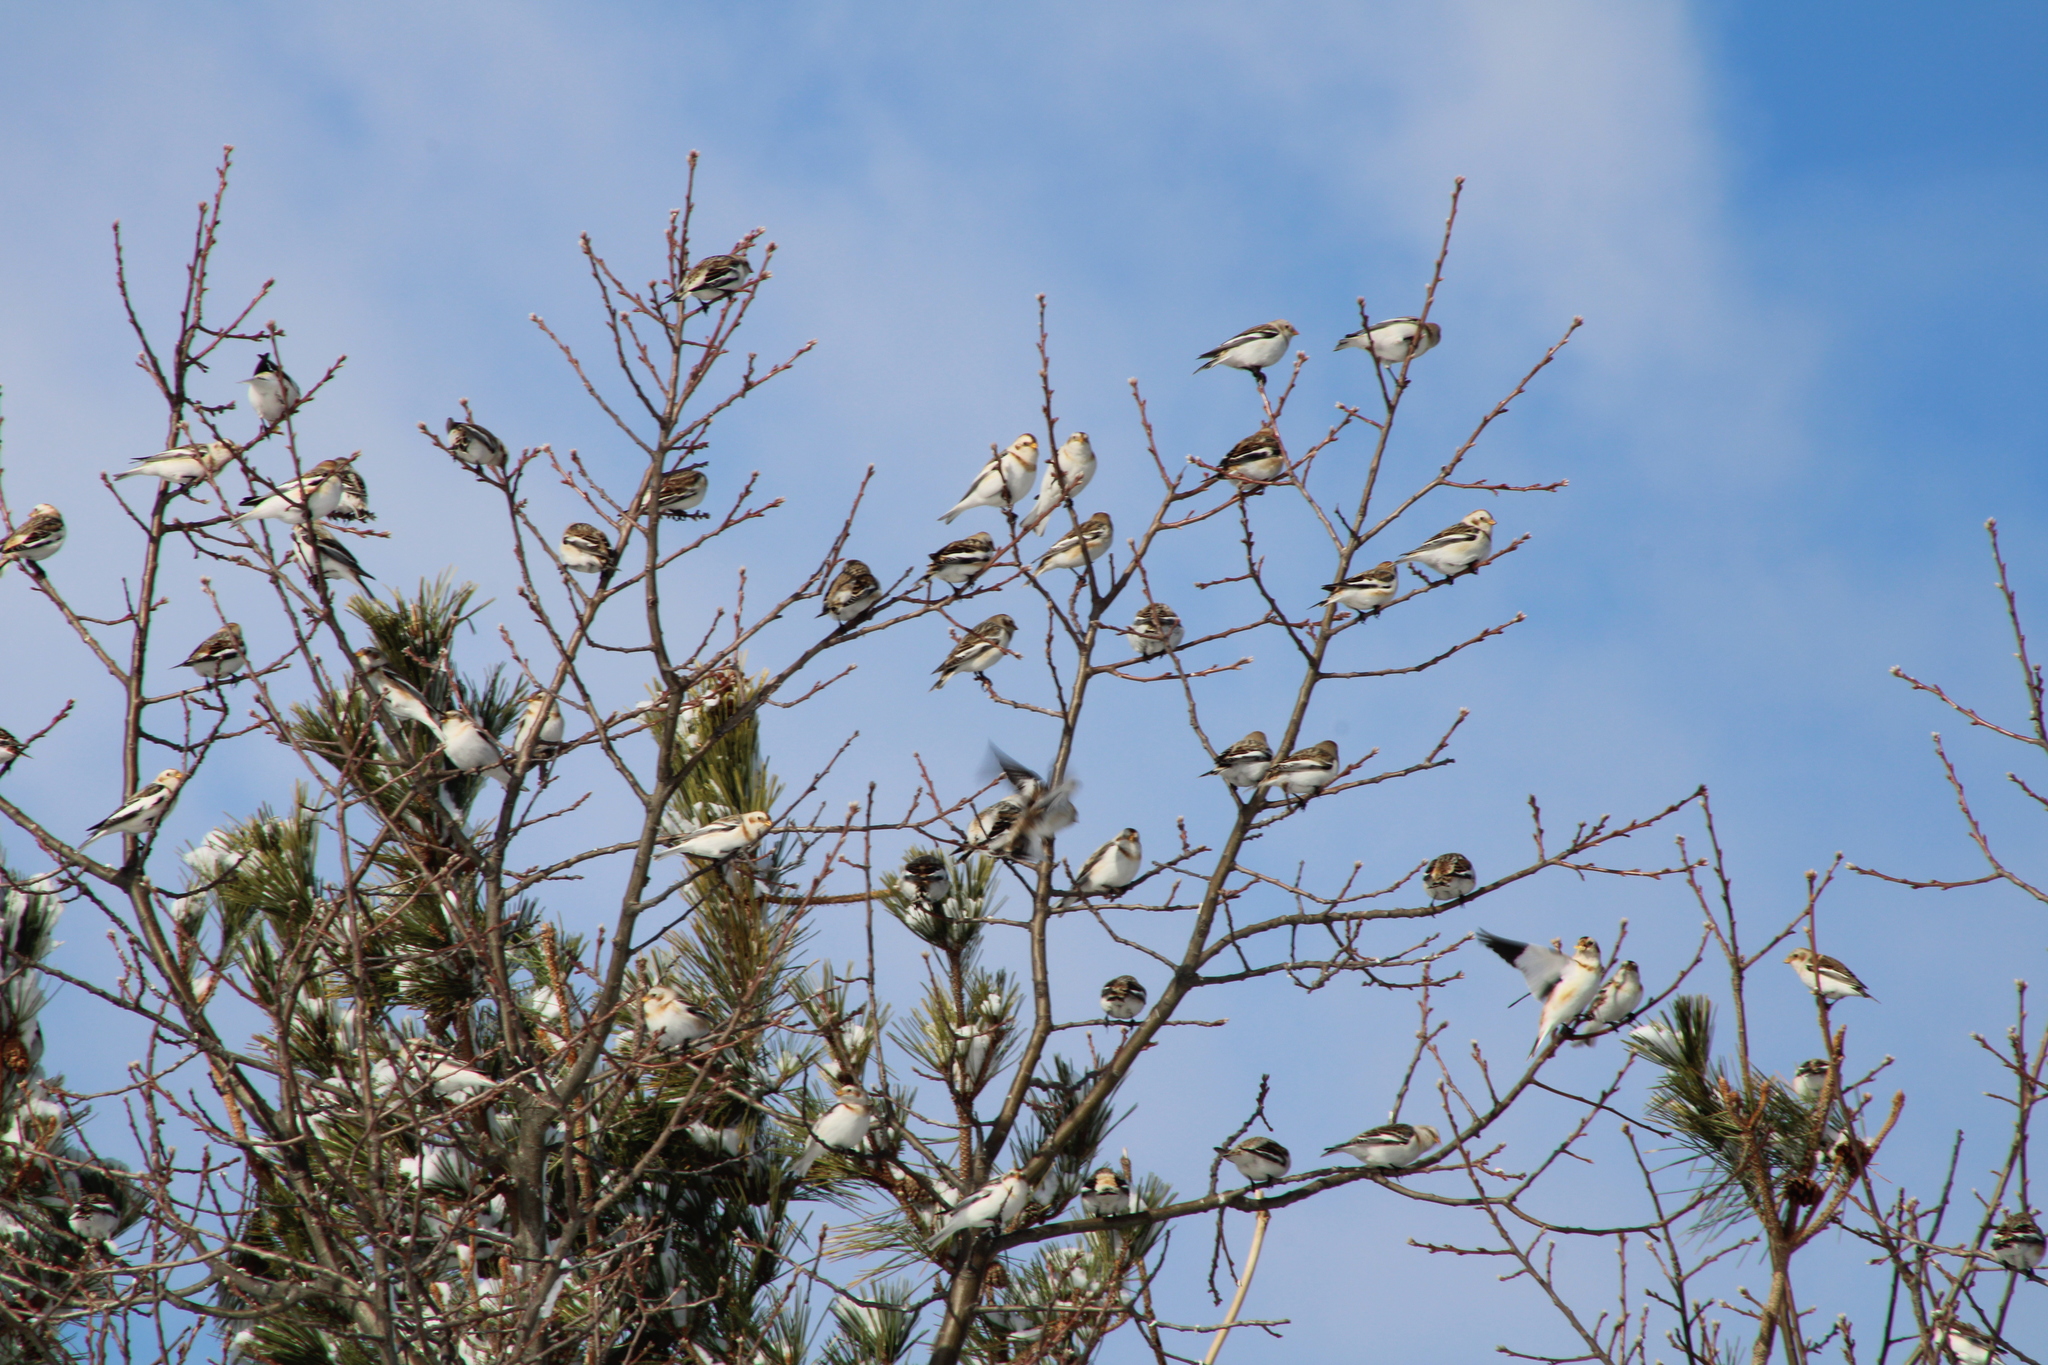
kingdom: Animalia
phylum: Chordata
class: Aves
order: Passeriformes
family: Calcariidae
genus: Plectrophenax
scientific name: Plectrophenax nivalis
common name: Snow bunting
